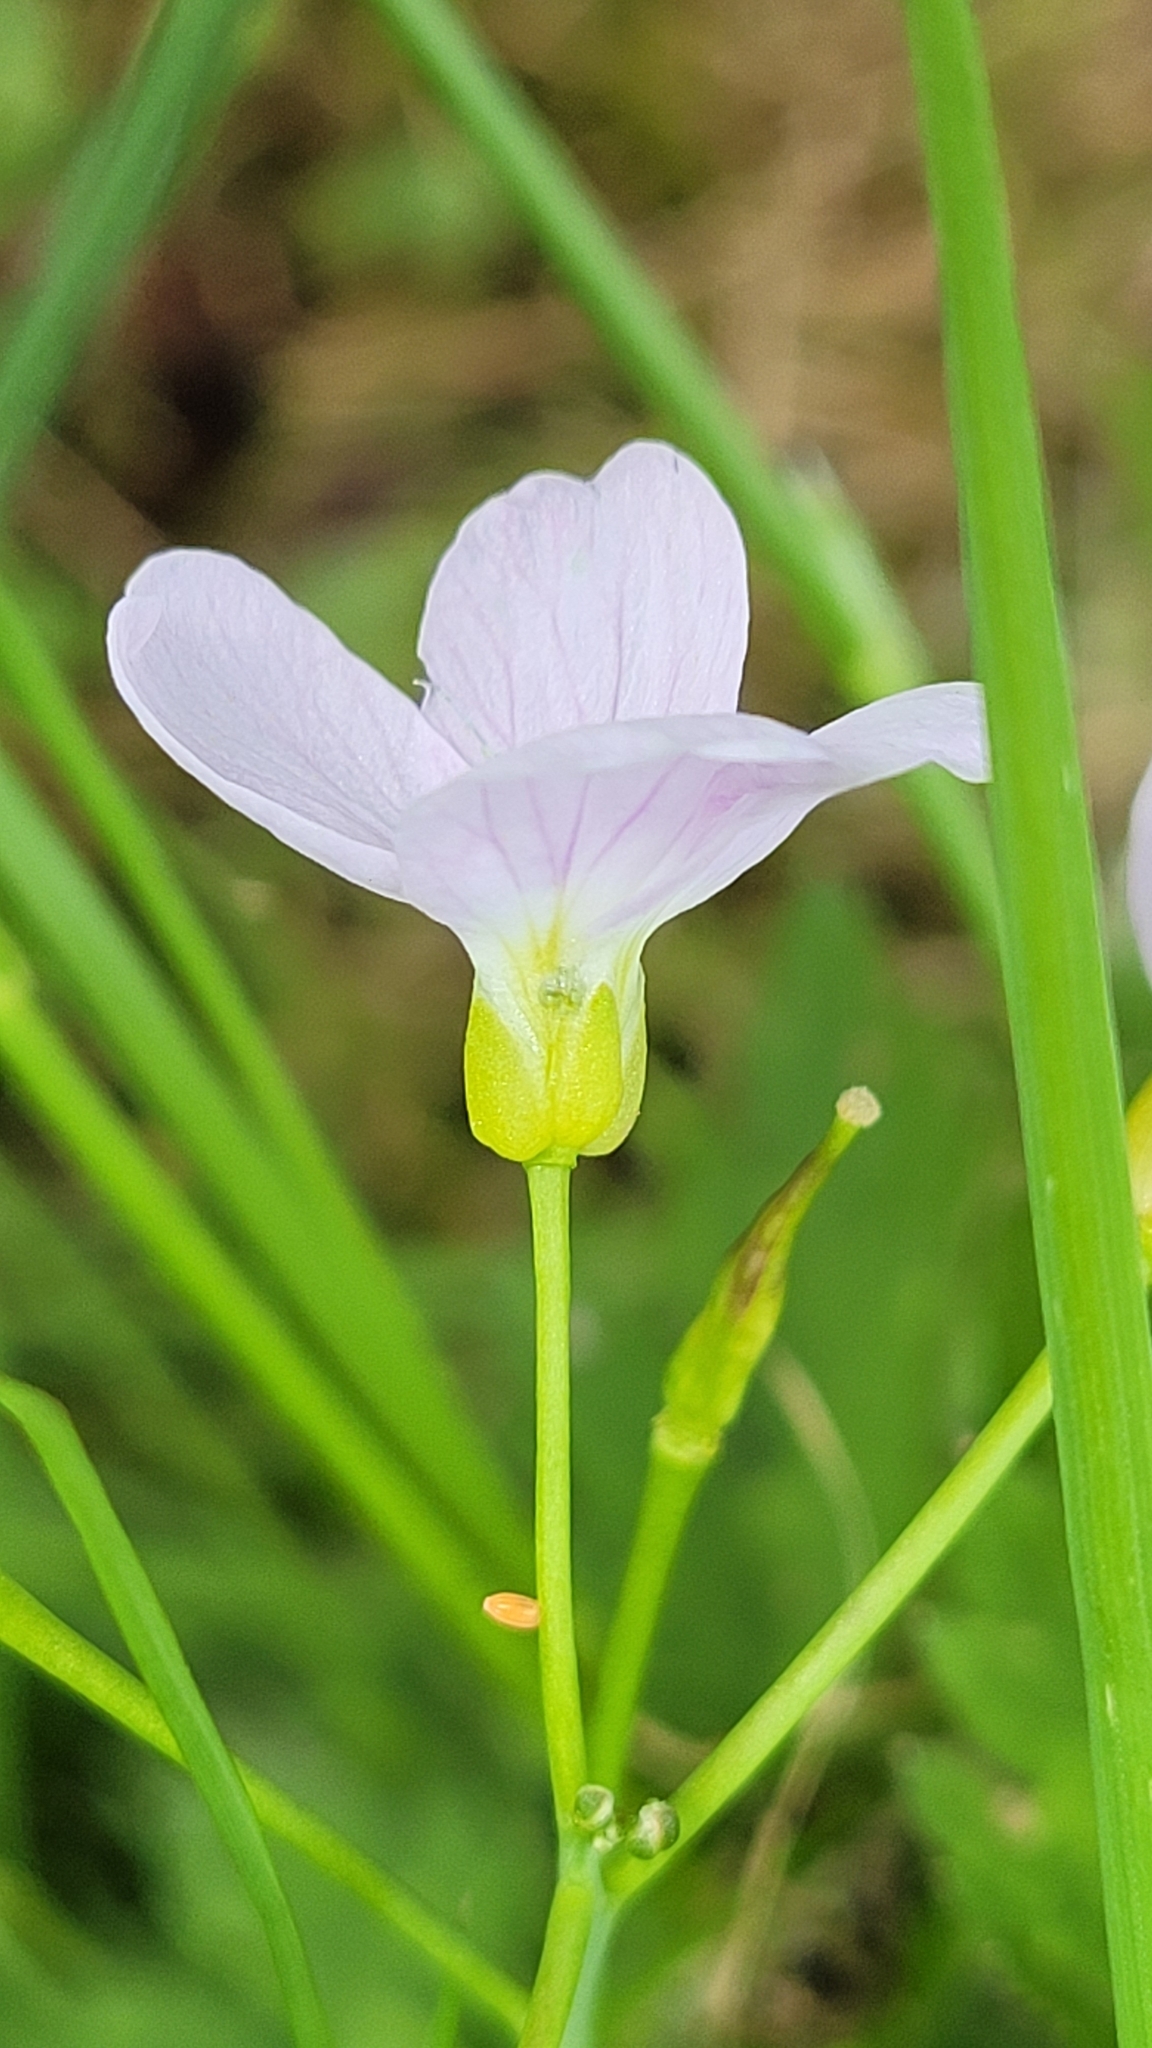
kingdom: Animalia
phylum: Arthropoda
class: Insecta
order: Lepidoptera
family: Pieridae
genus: Anthocharis
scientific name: Anthocharis cardamines
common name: Orange-tip
